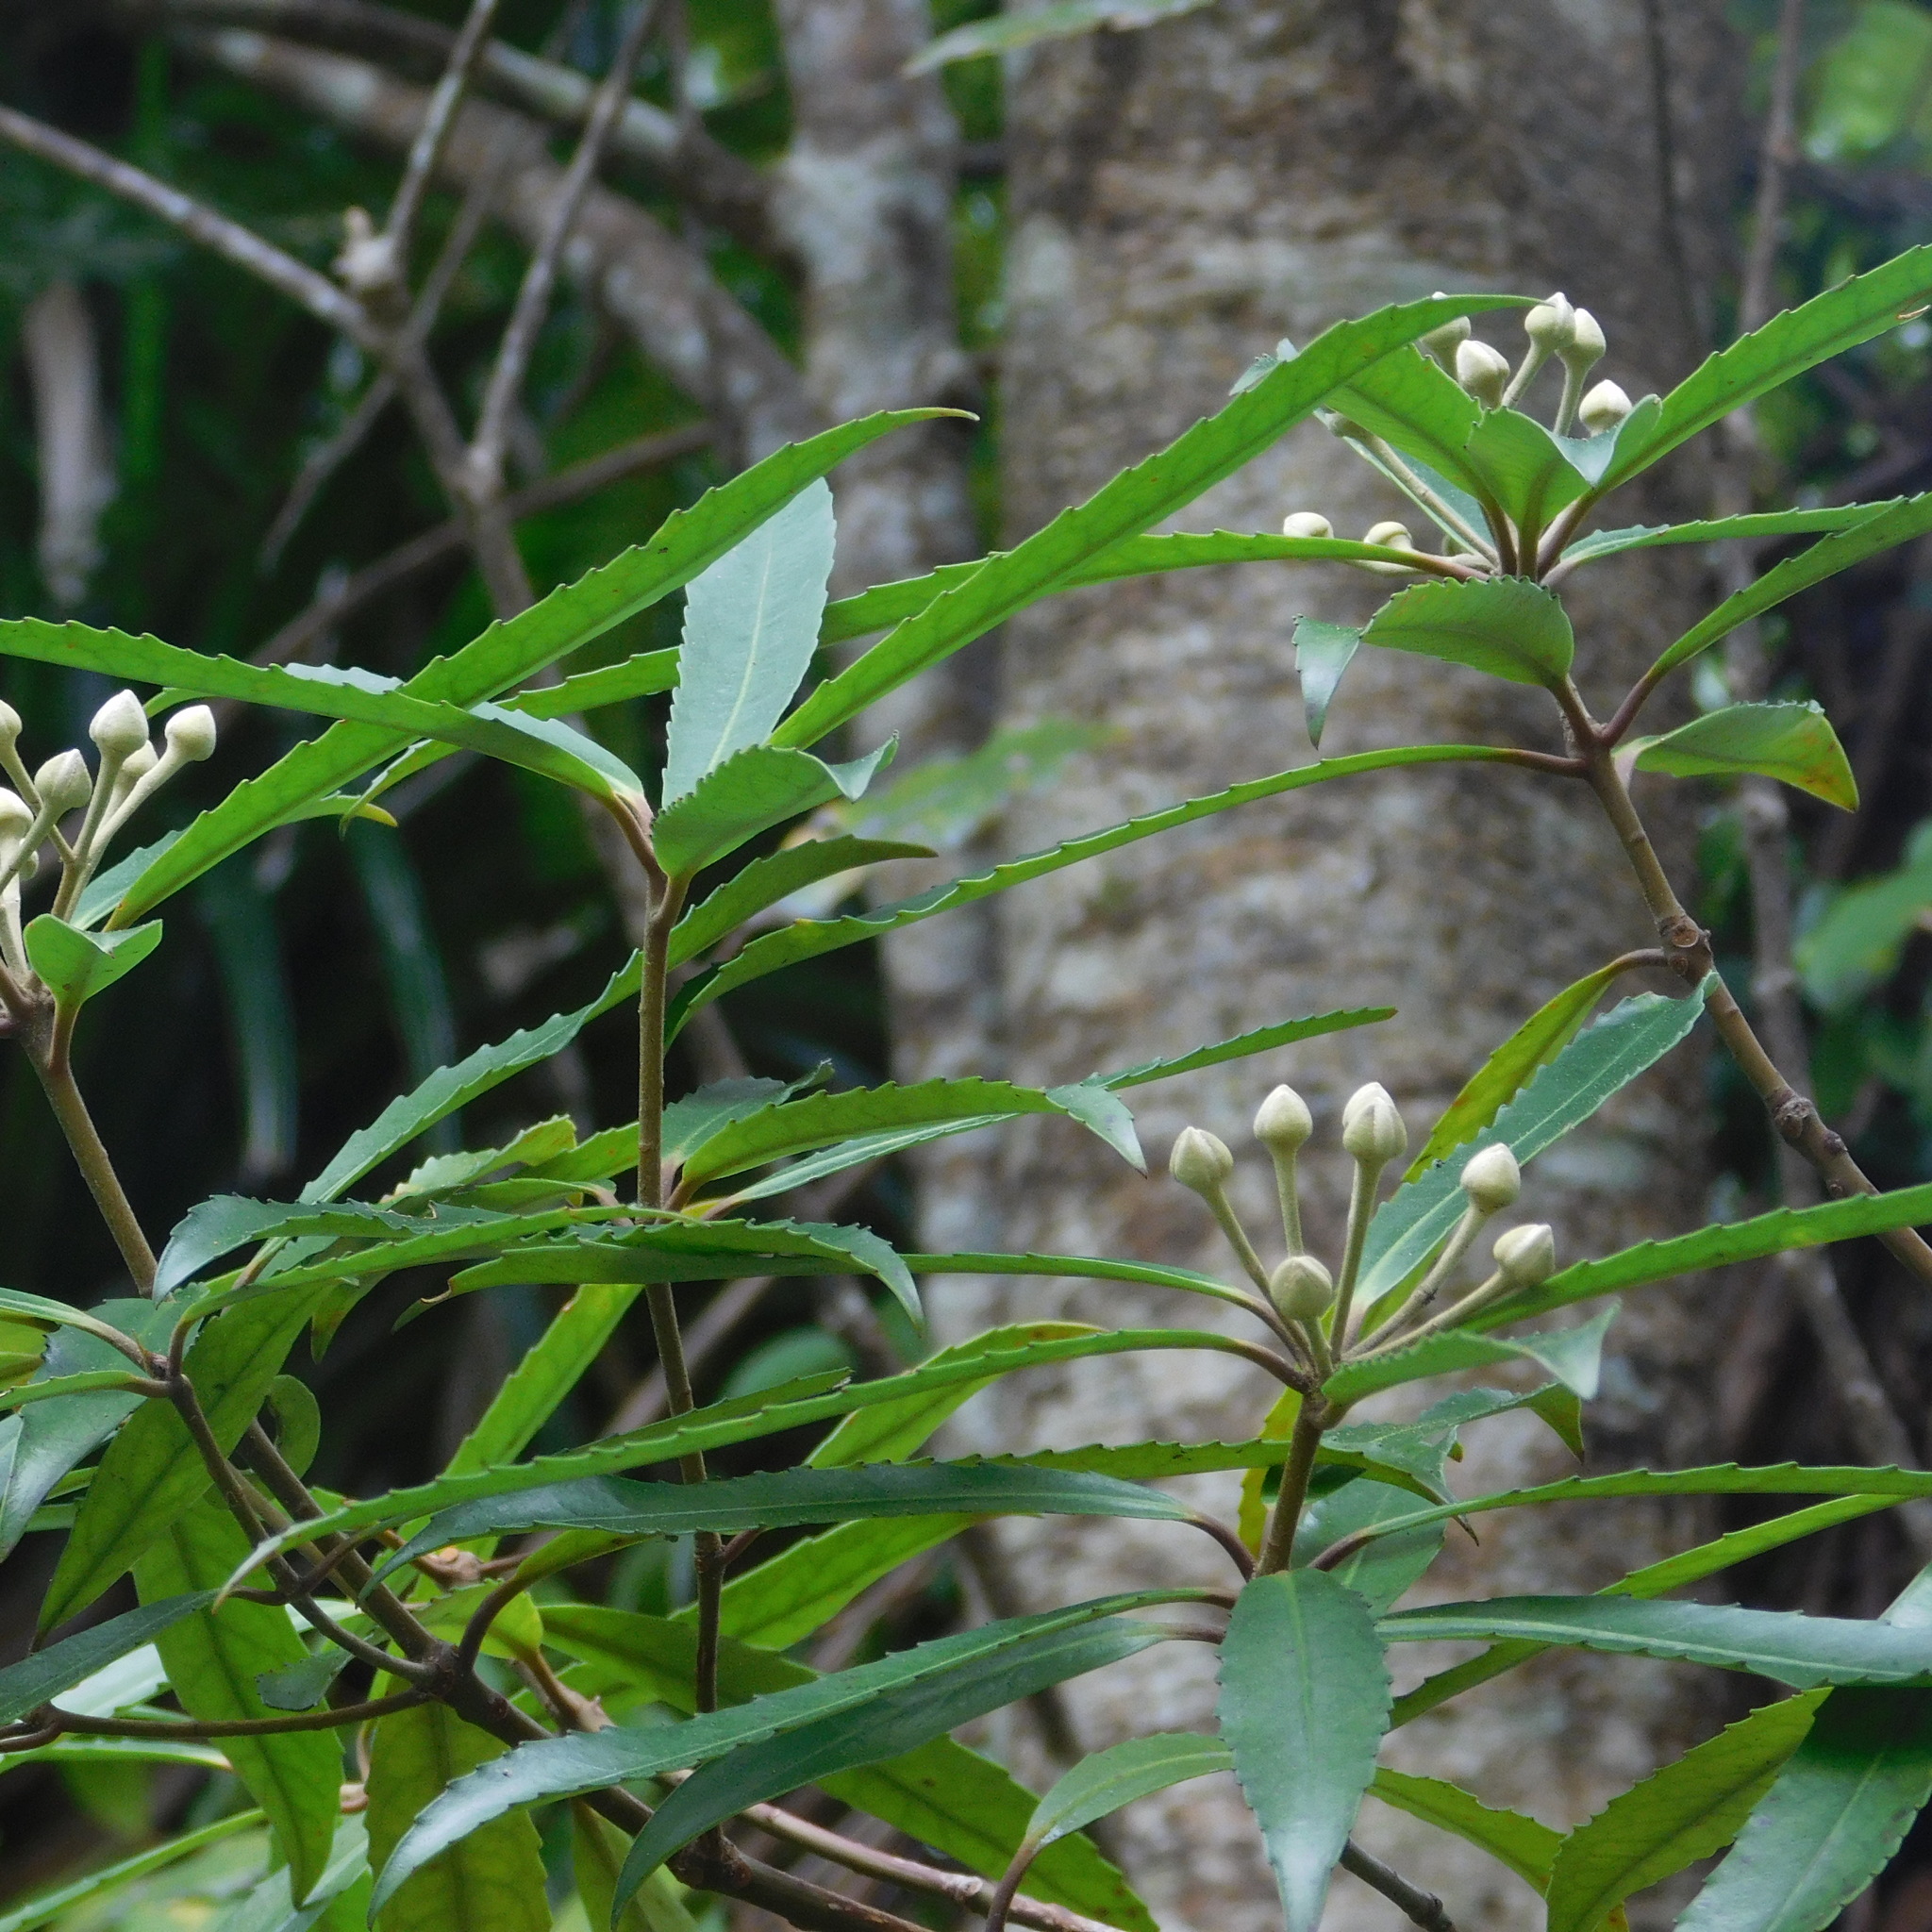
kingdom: Plantae
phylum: Tracheophyta
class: Magnoliopsida
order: Crossosomatales
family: Ixerbaceae
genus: Ixerba
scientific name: Ixerba brexioides
